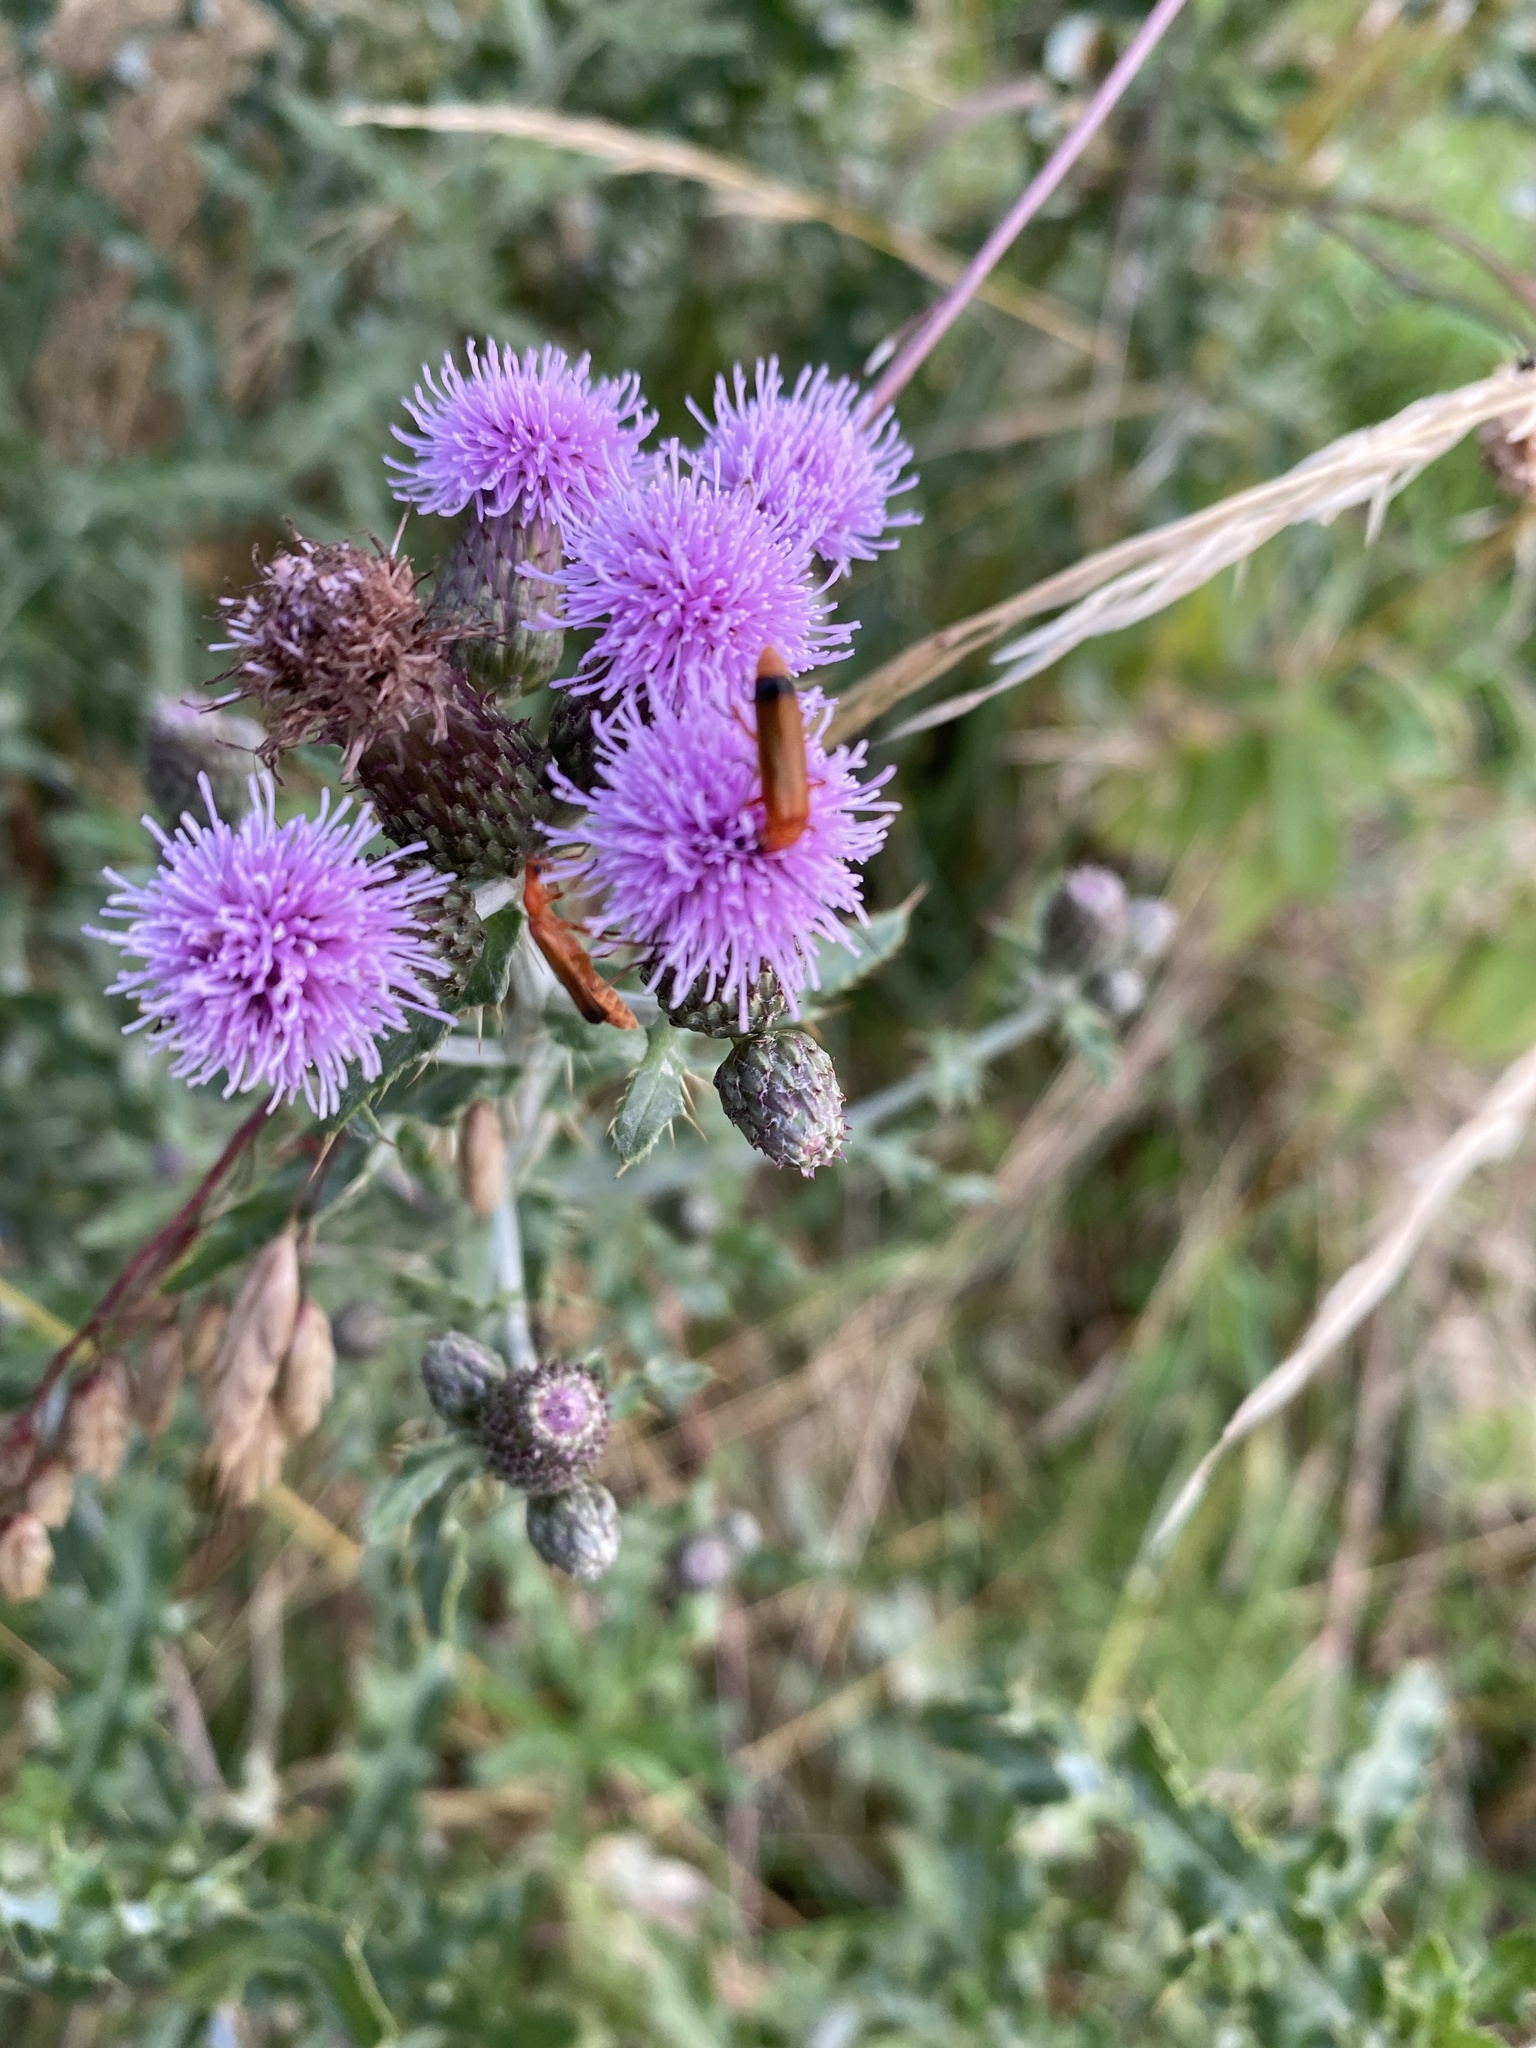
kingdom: Animalia
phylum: Arthropoda
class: Insecta
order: Coleoptera
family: Cantharidae
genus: Rhagonycha
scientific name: Rhagonycha fulva
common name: Common red soldier beetle
